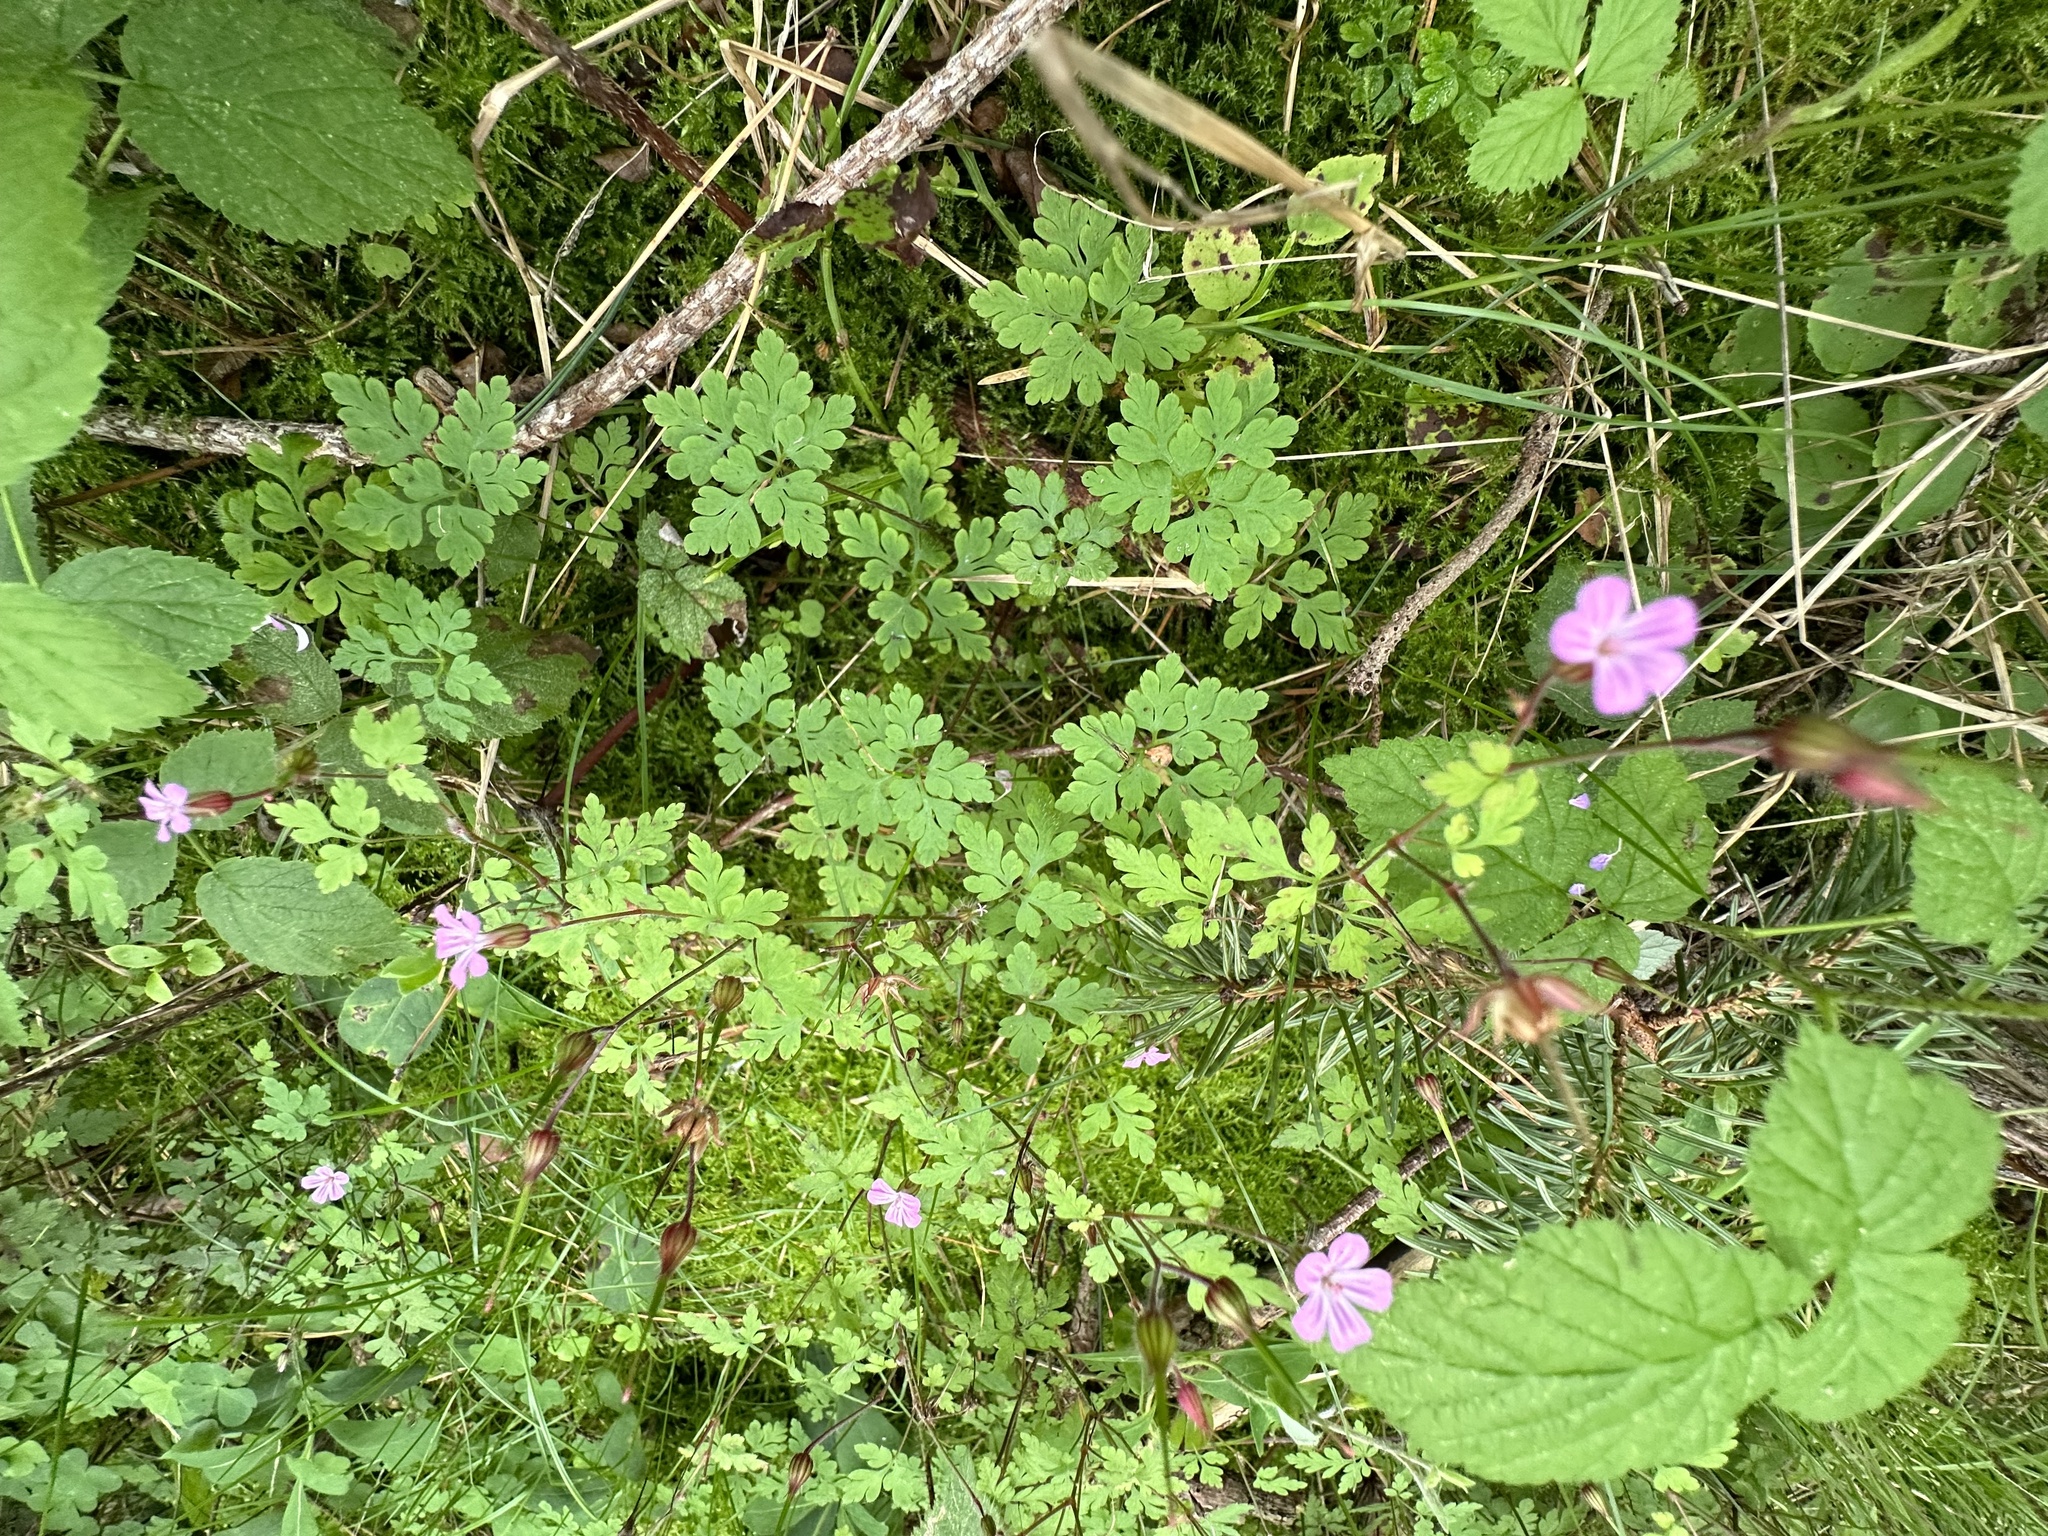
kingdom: Plantae
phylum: Tracheophyta
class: Magnoliopsida
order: Geraniales
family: Geraniaceae
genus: Geranium
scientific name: Geranium robertianum
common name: Herb-robert
